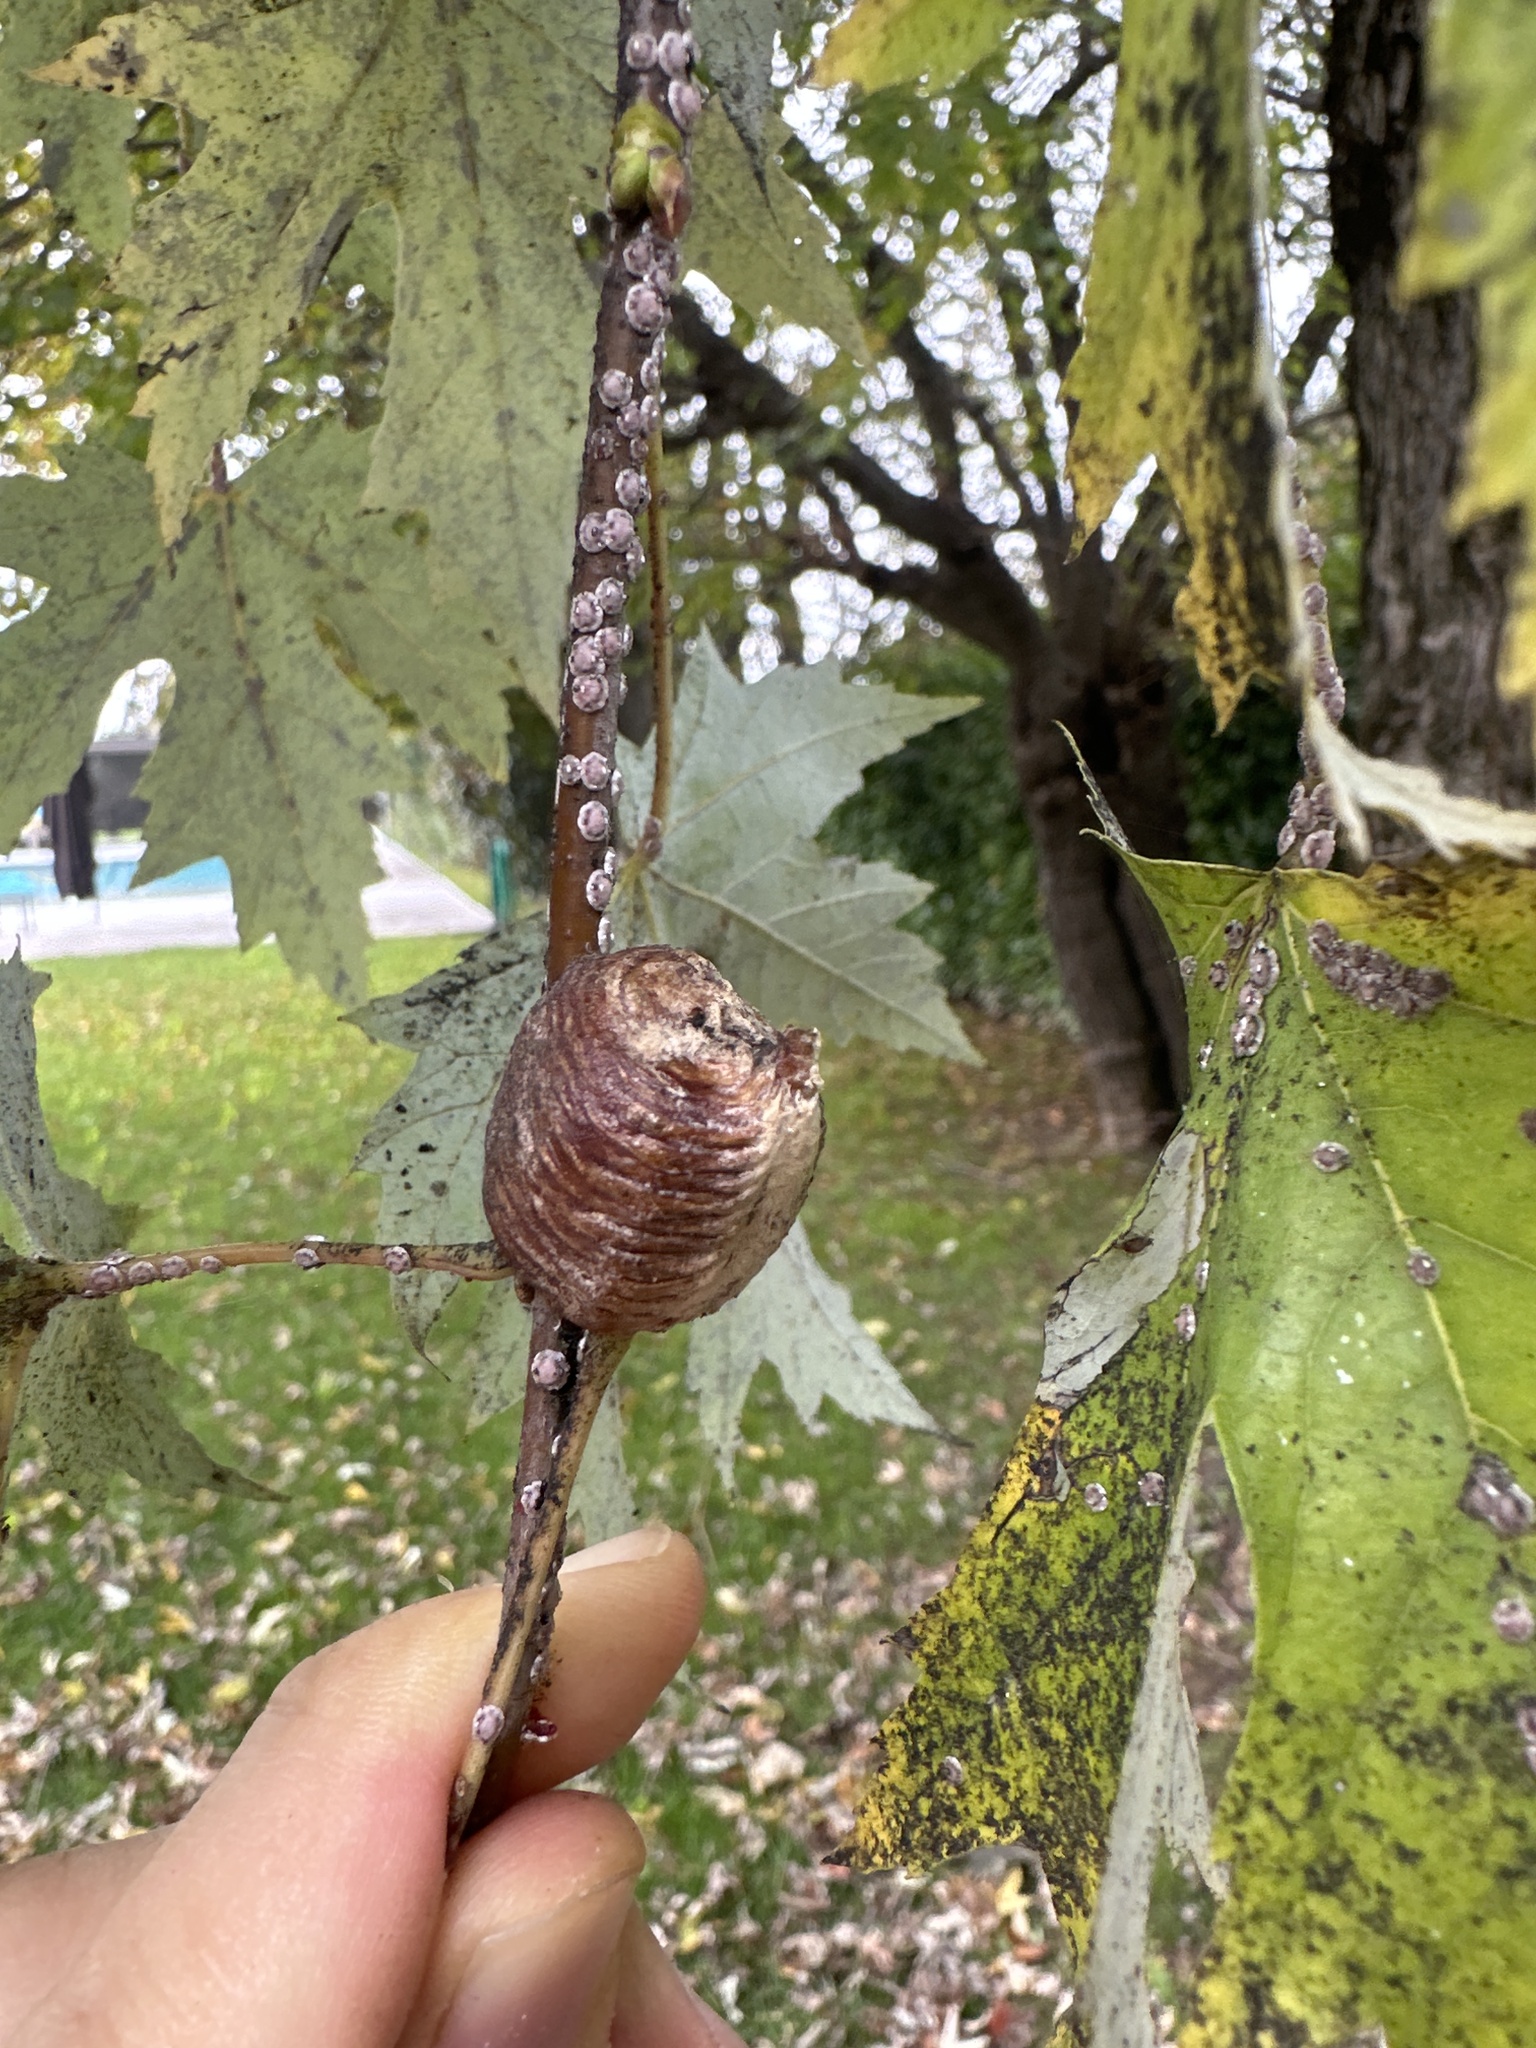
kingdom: Animalia
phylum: Arthropoda
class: Insecta
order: Mantodea
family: Mantidae
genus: Hierodula
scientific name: Hierodula transcaucasica
